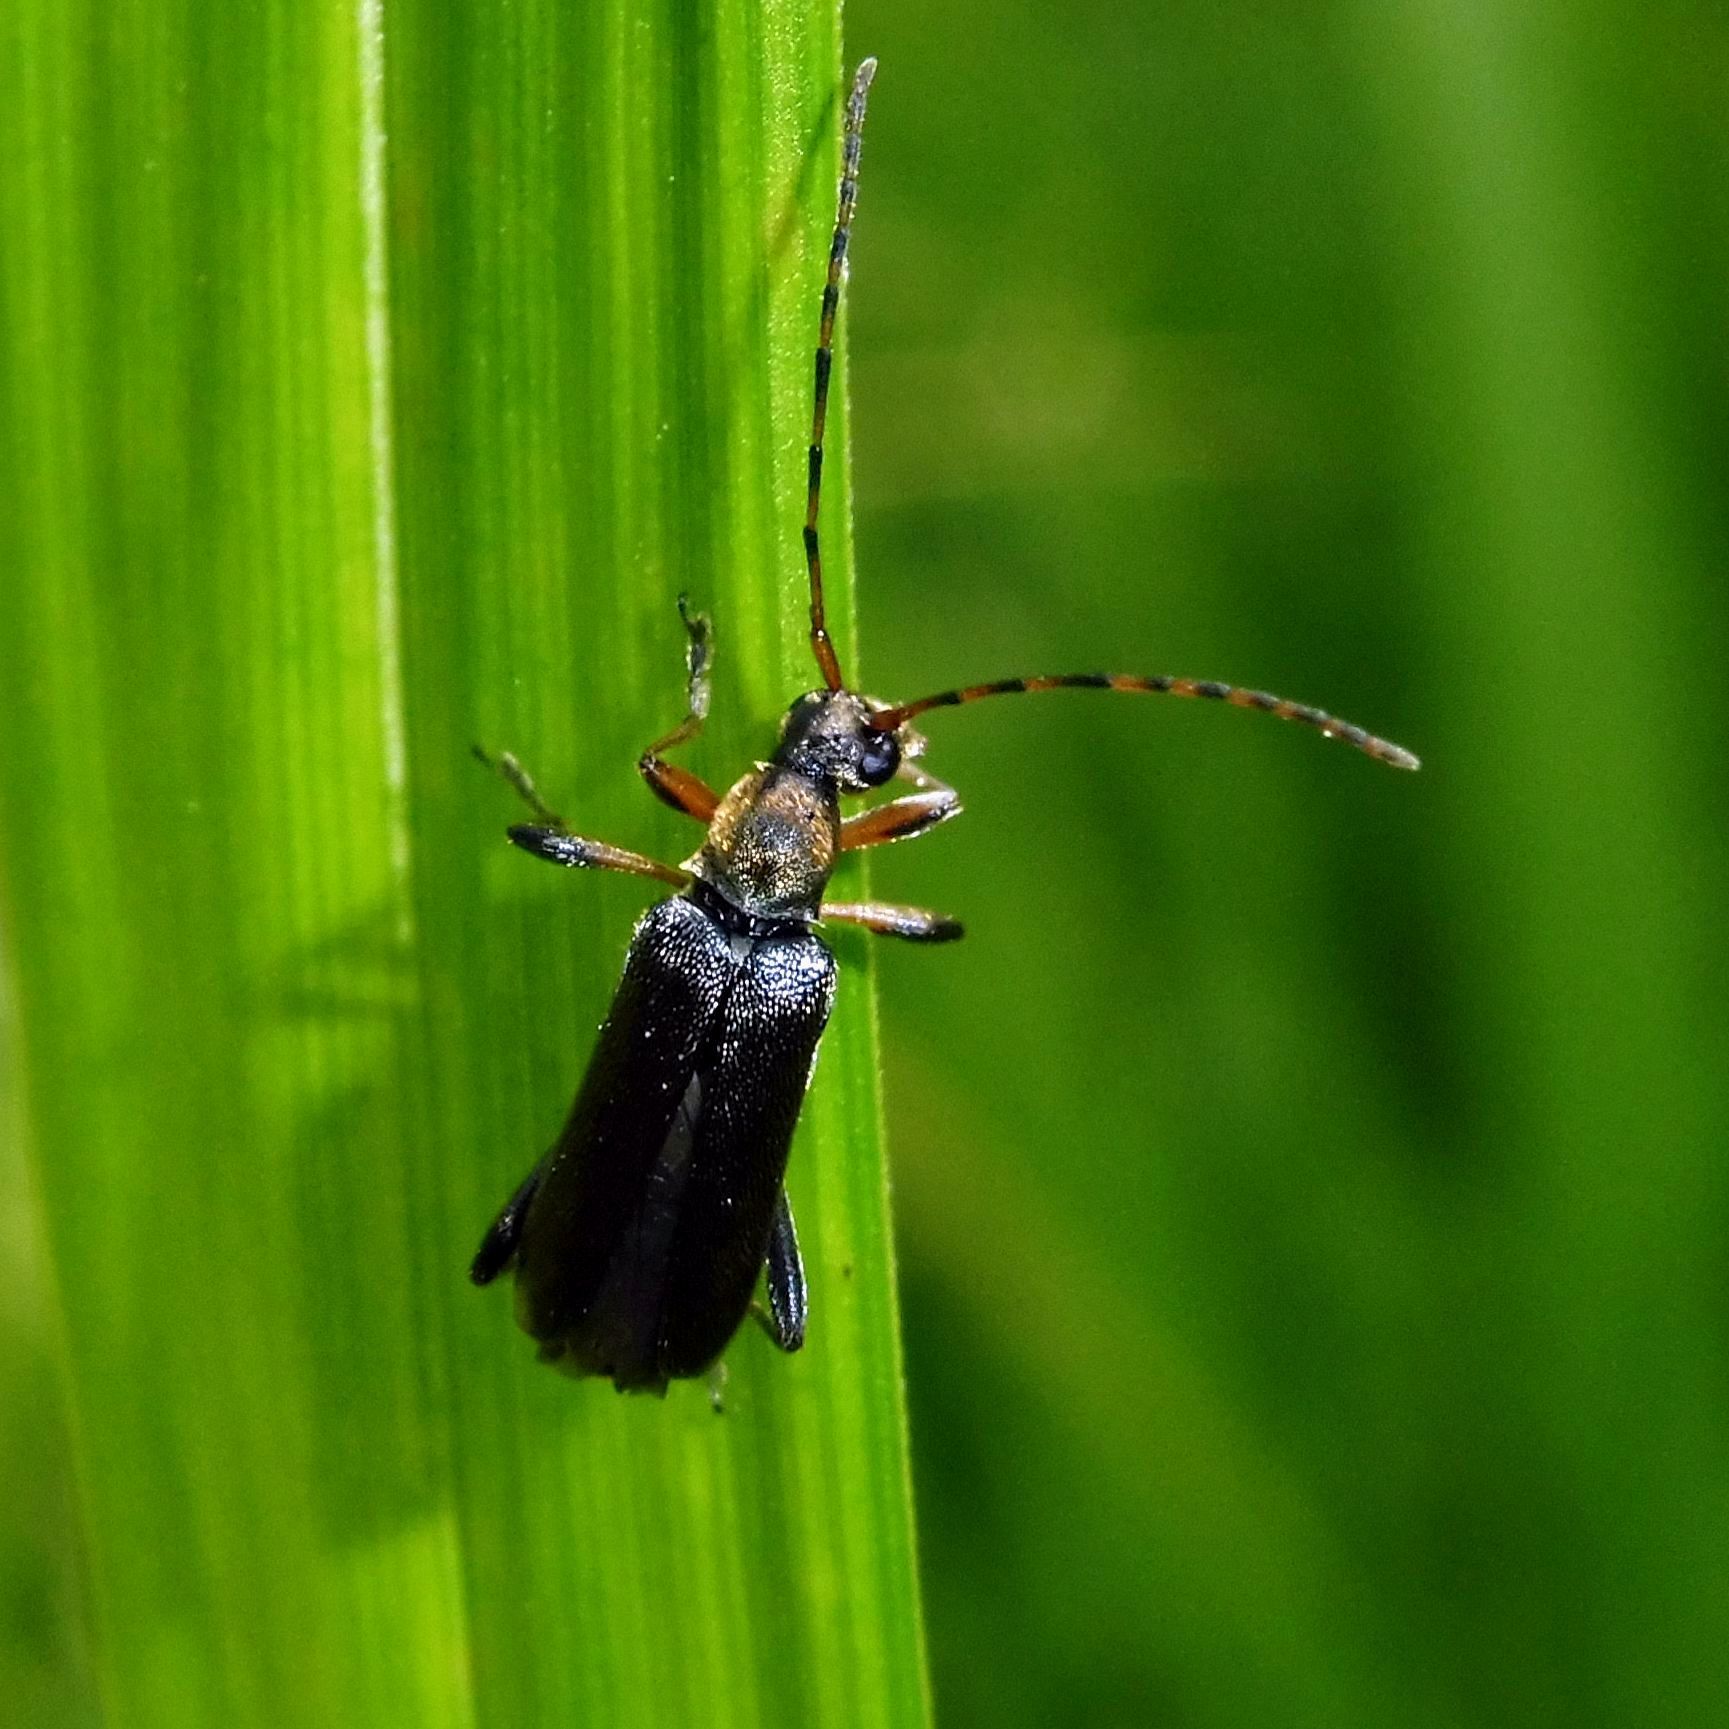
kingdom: Animalia
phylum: Arthropoda
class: Insecta
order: Coleoptera
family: Cerambycidae
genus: Grammoptera
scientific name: Grammoptera ruficornis
